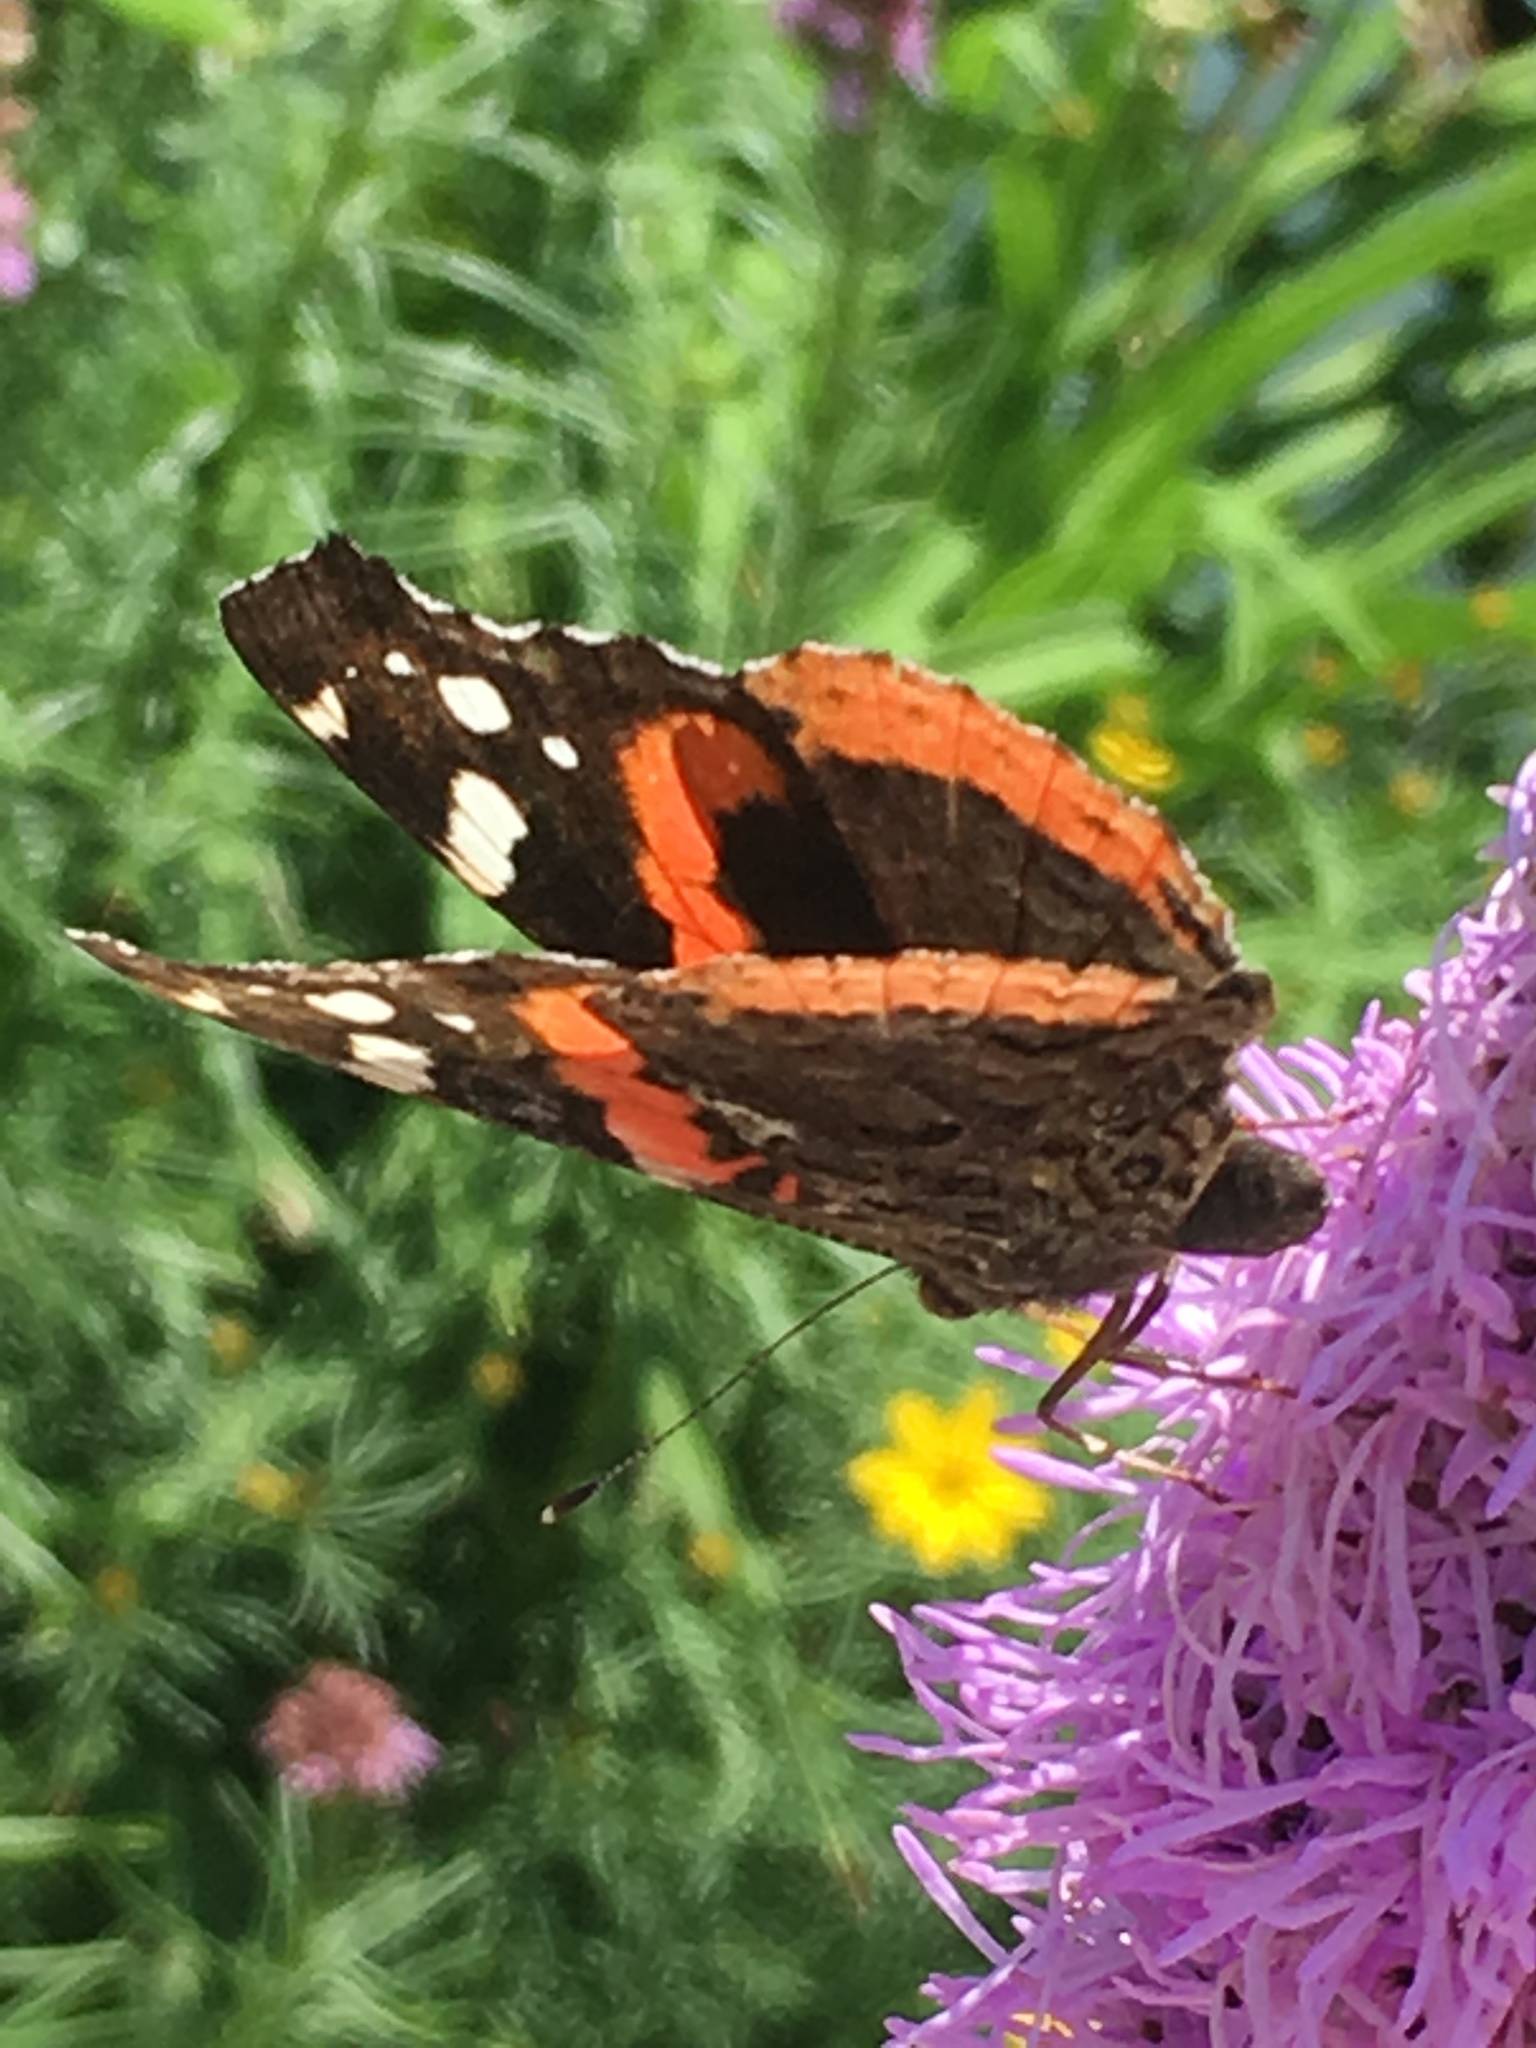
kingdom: Animalia
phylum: Arthropoda
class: Insecta
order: Lepidoptera
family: Nymphalidae
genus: Vanessa
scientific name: Vanessa atalanta
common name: Red admiral
